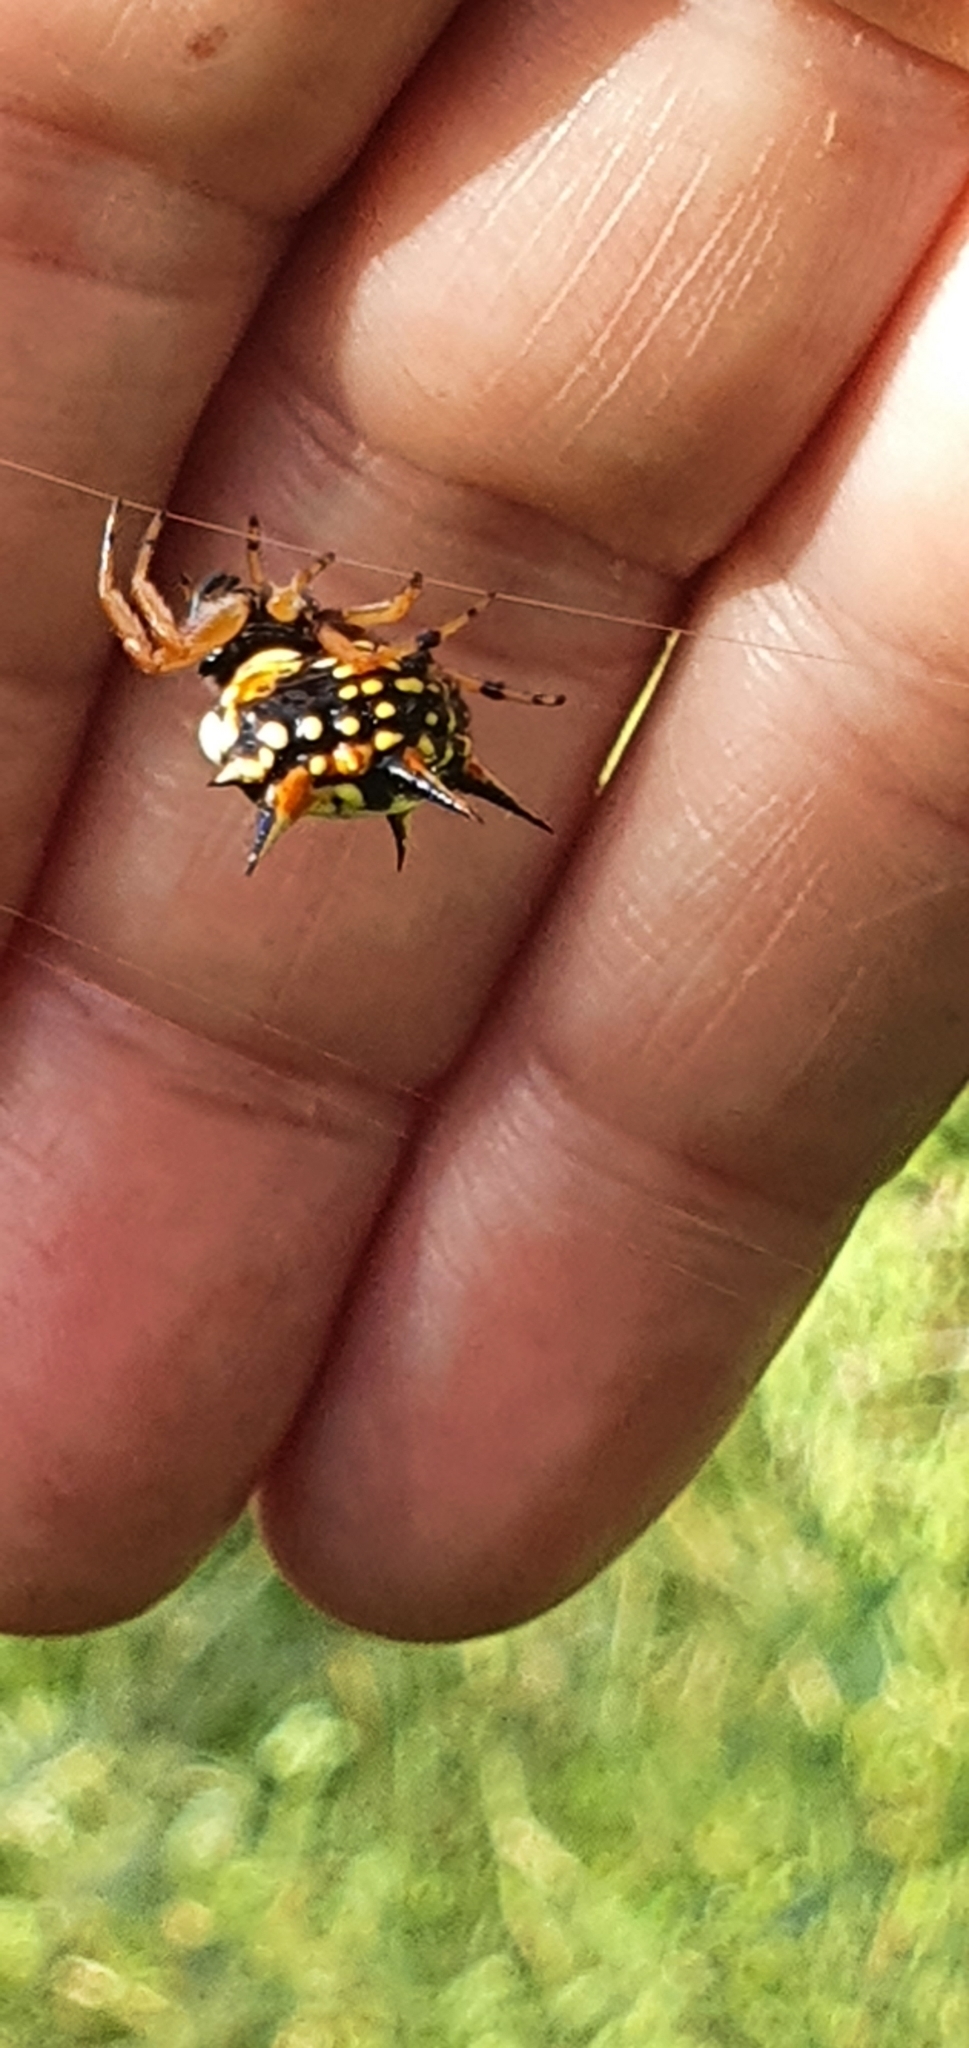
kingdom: Animalia
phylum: Arthropoda
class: Arachnida
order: Araneae
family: Araneidae
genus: Austracantha
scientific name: Austracantha minax
